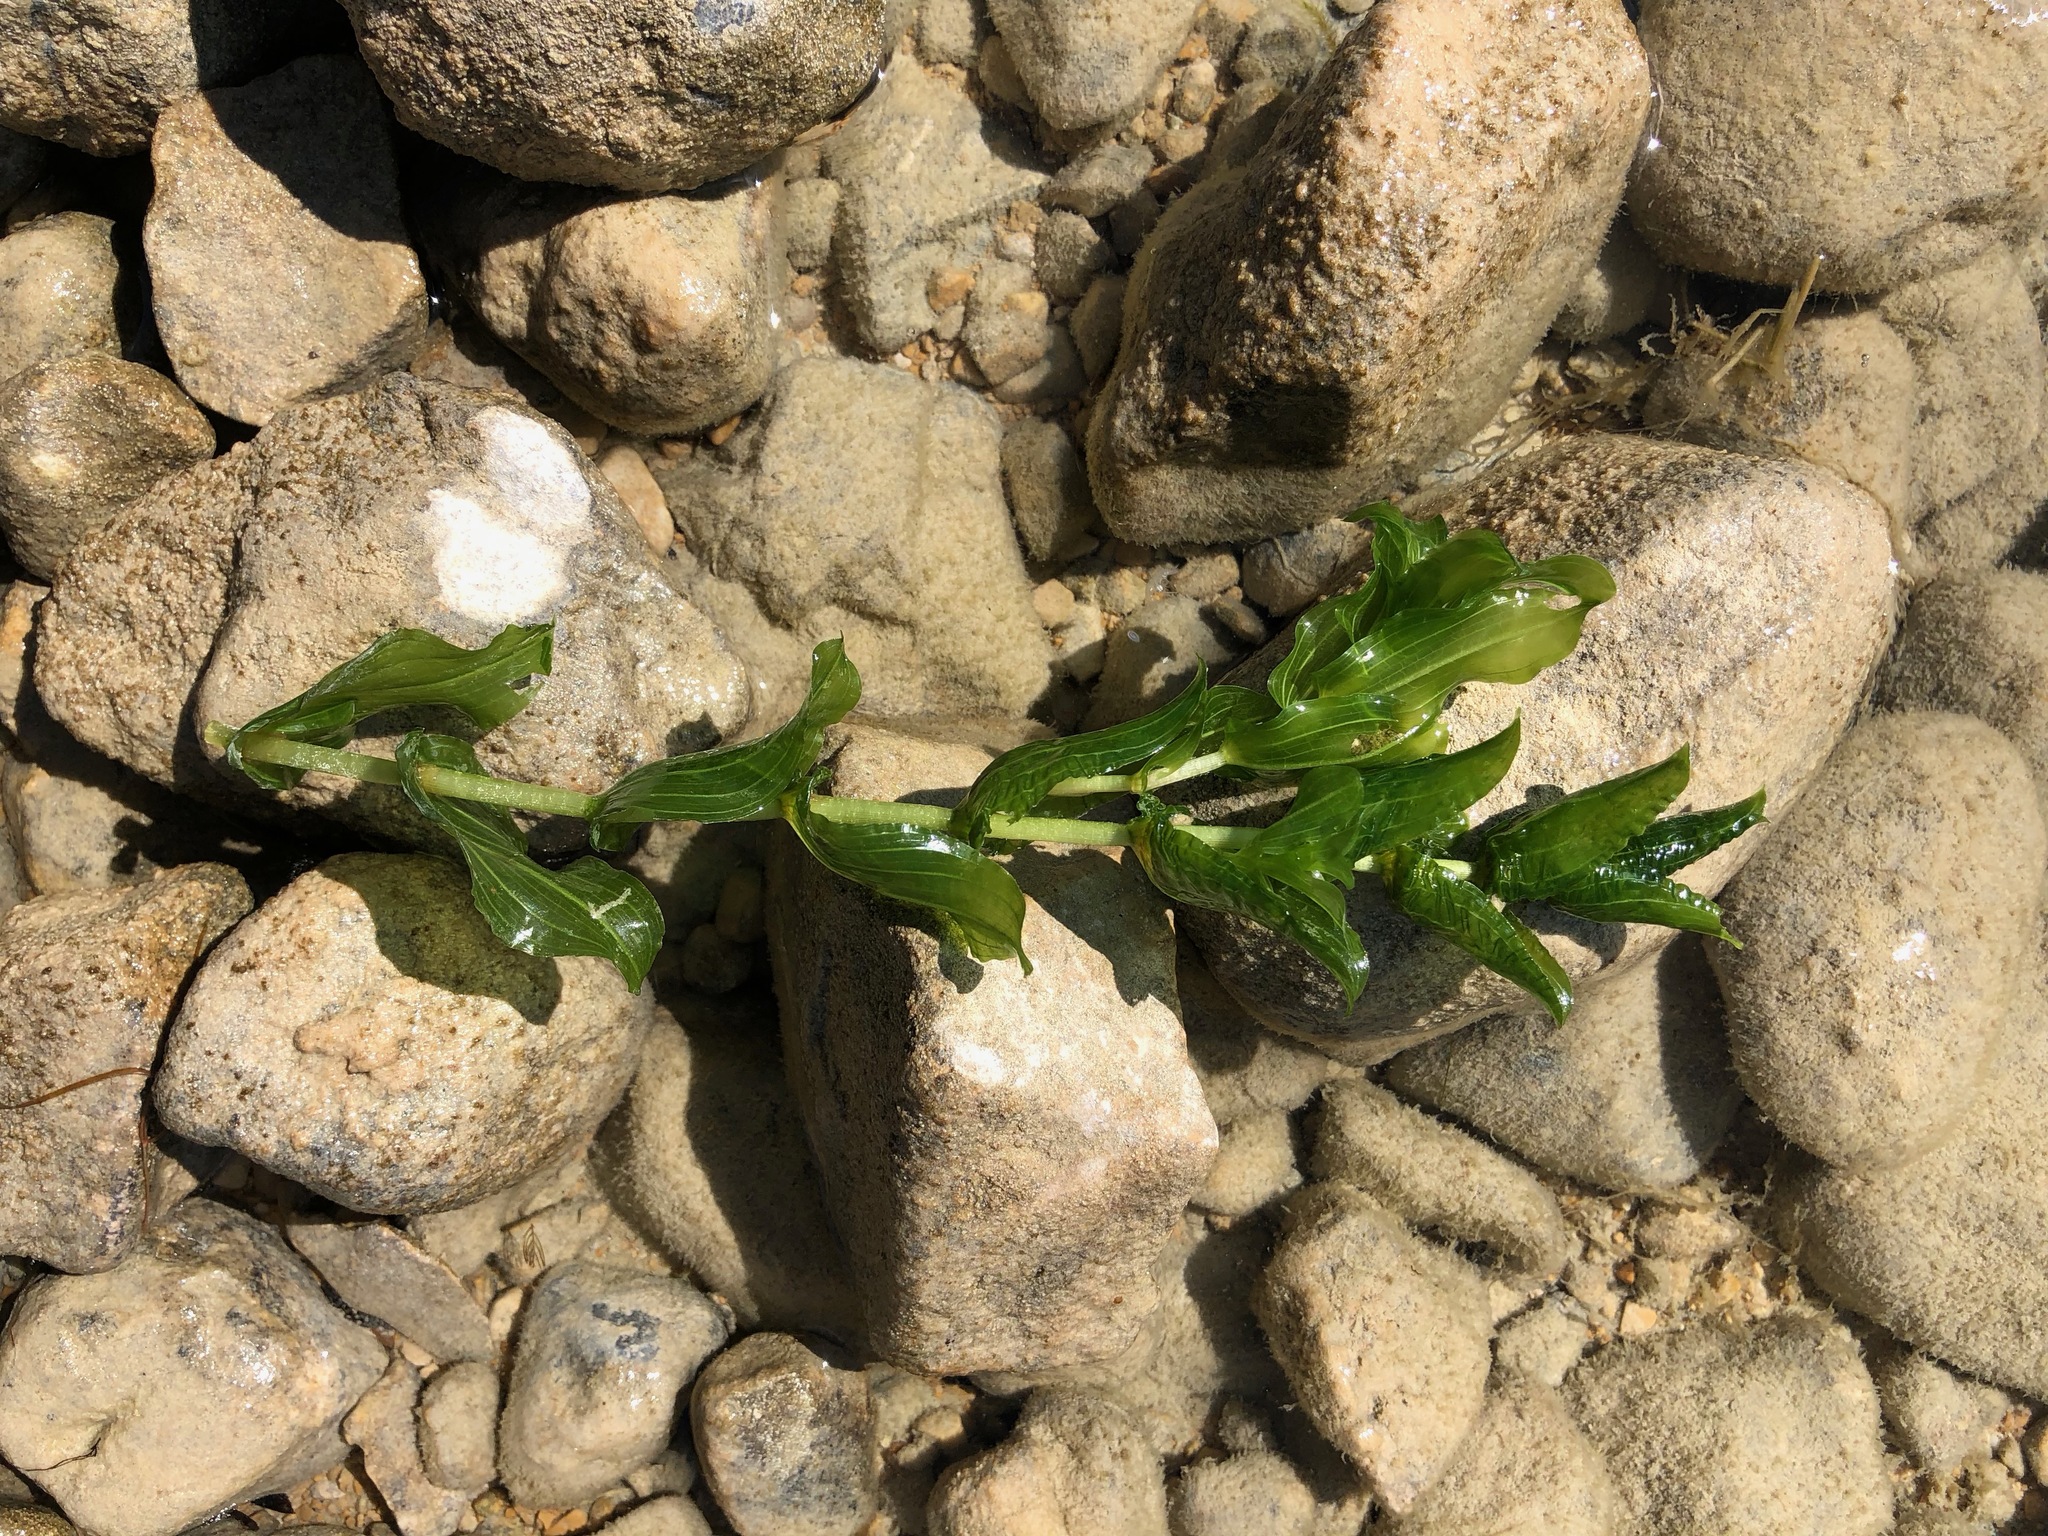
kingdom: Plantae
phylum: Tracheophyta
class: Liliopsida
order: Alismatales
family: Potamogetonaceae
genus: Potamogeton
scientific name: Potamogeton perfoliatus
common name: Perfoliate pondweed
